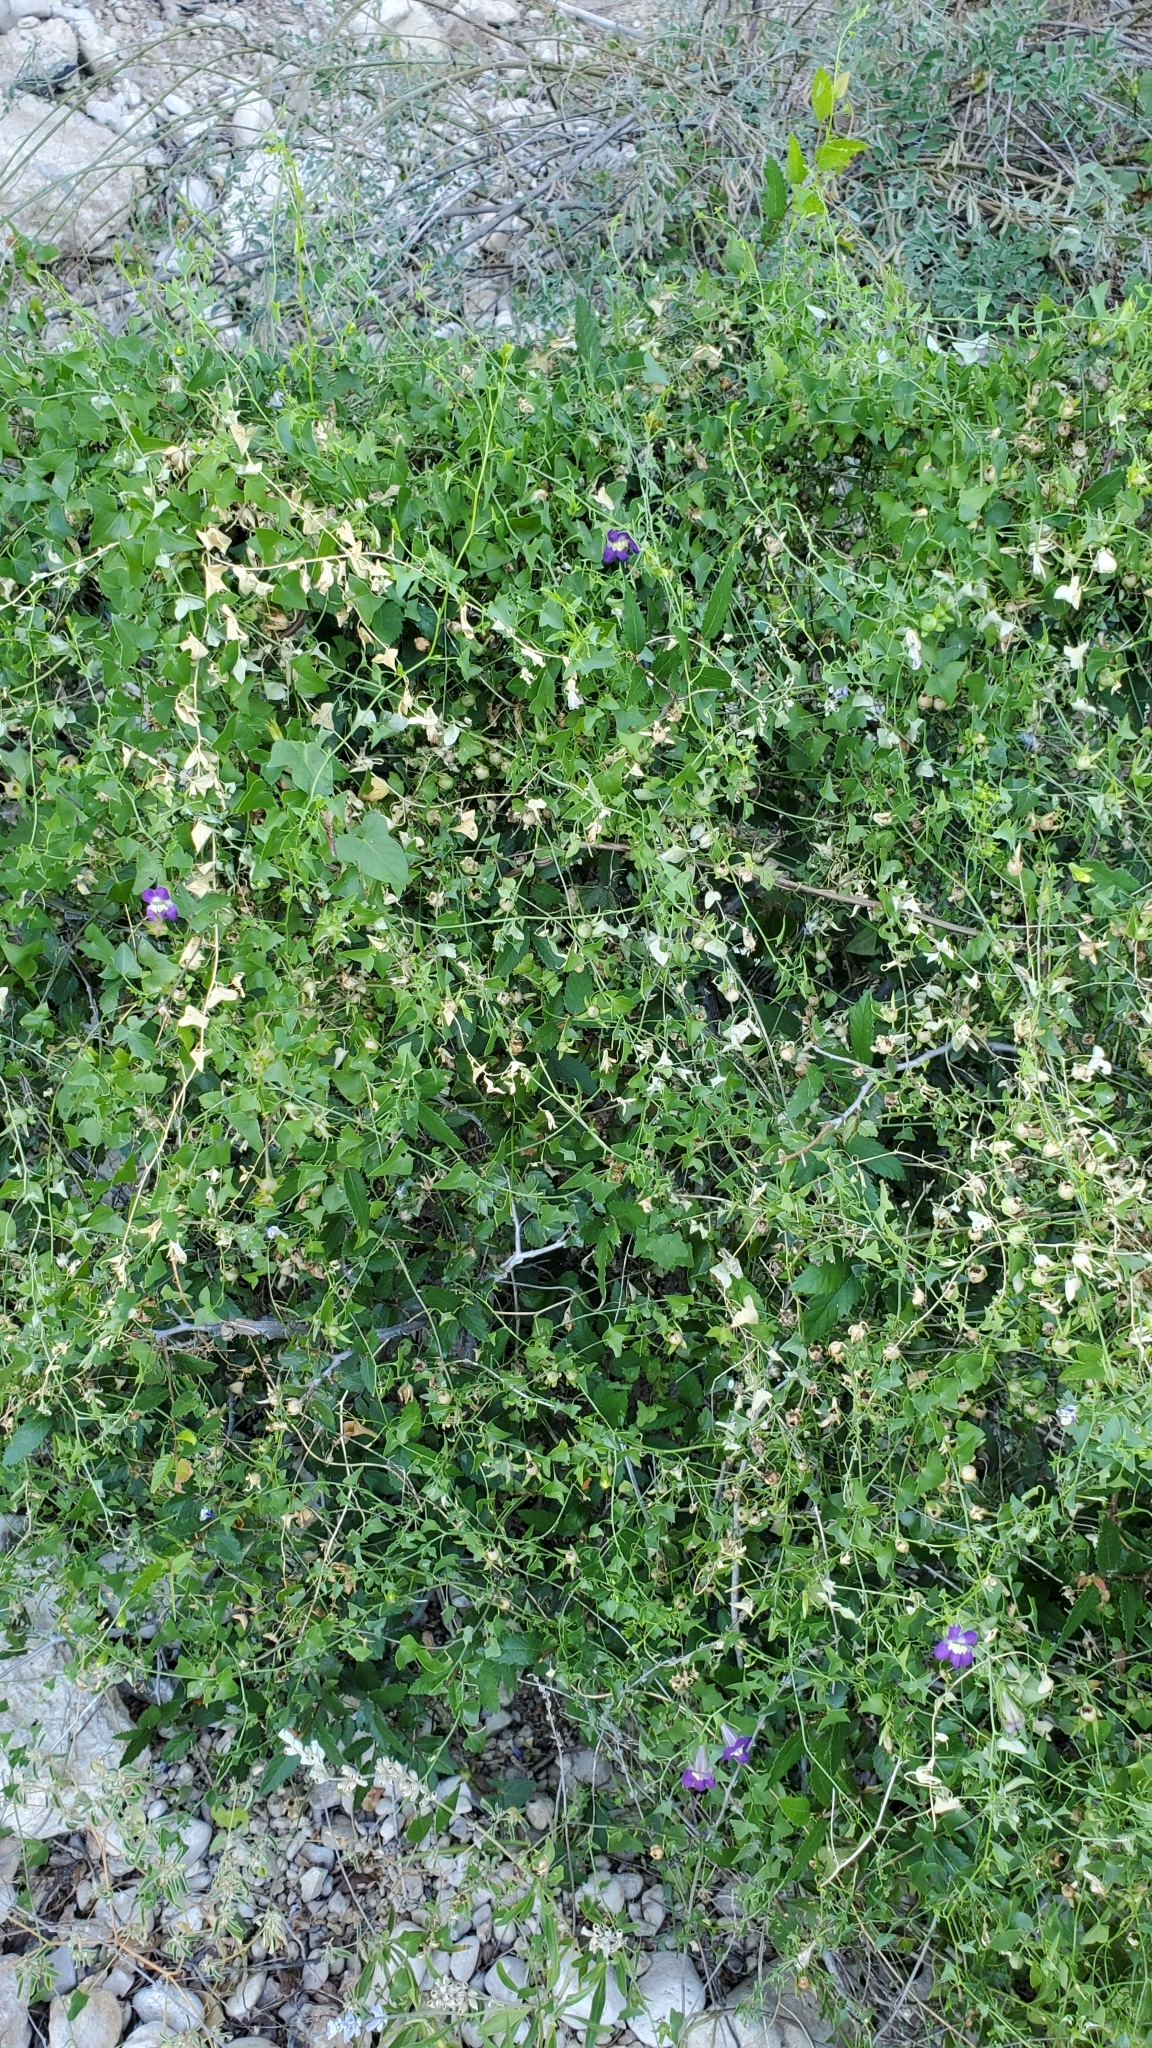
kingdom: Plantae
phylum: Tracheophyta
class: Magnoliopsida
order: Lamiales
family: Plantaginaceae
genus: Maurandella
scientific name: Maurandella antirrhiniflora
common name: Violet twining-snapdragon
